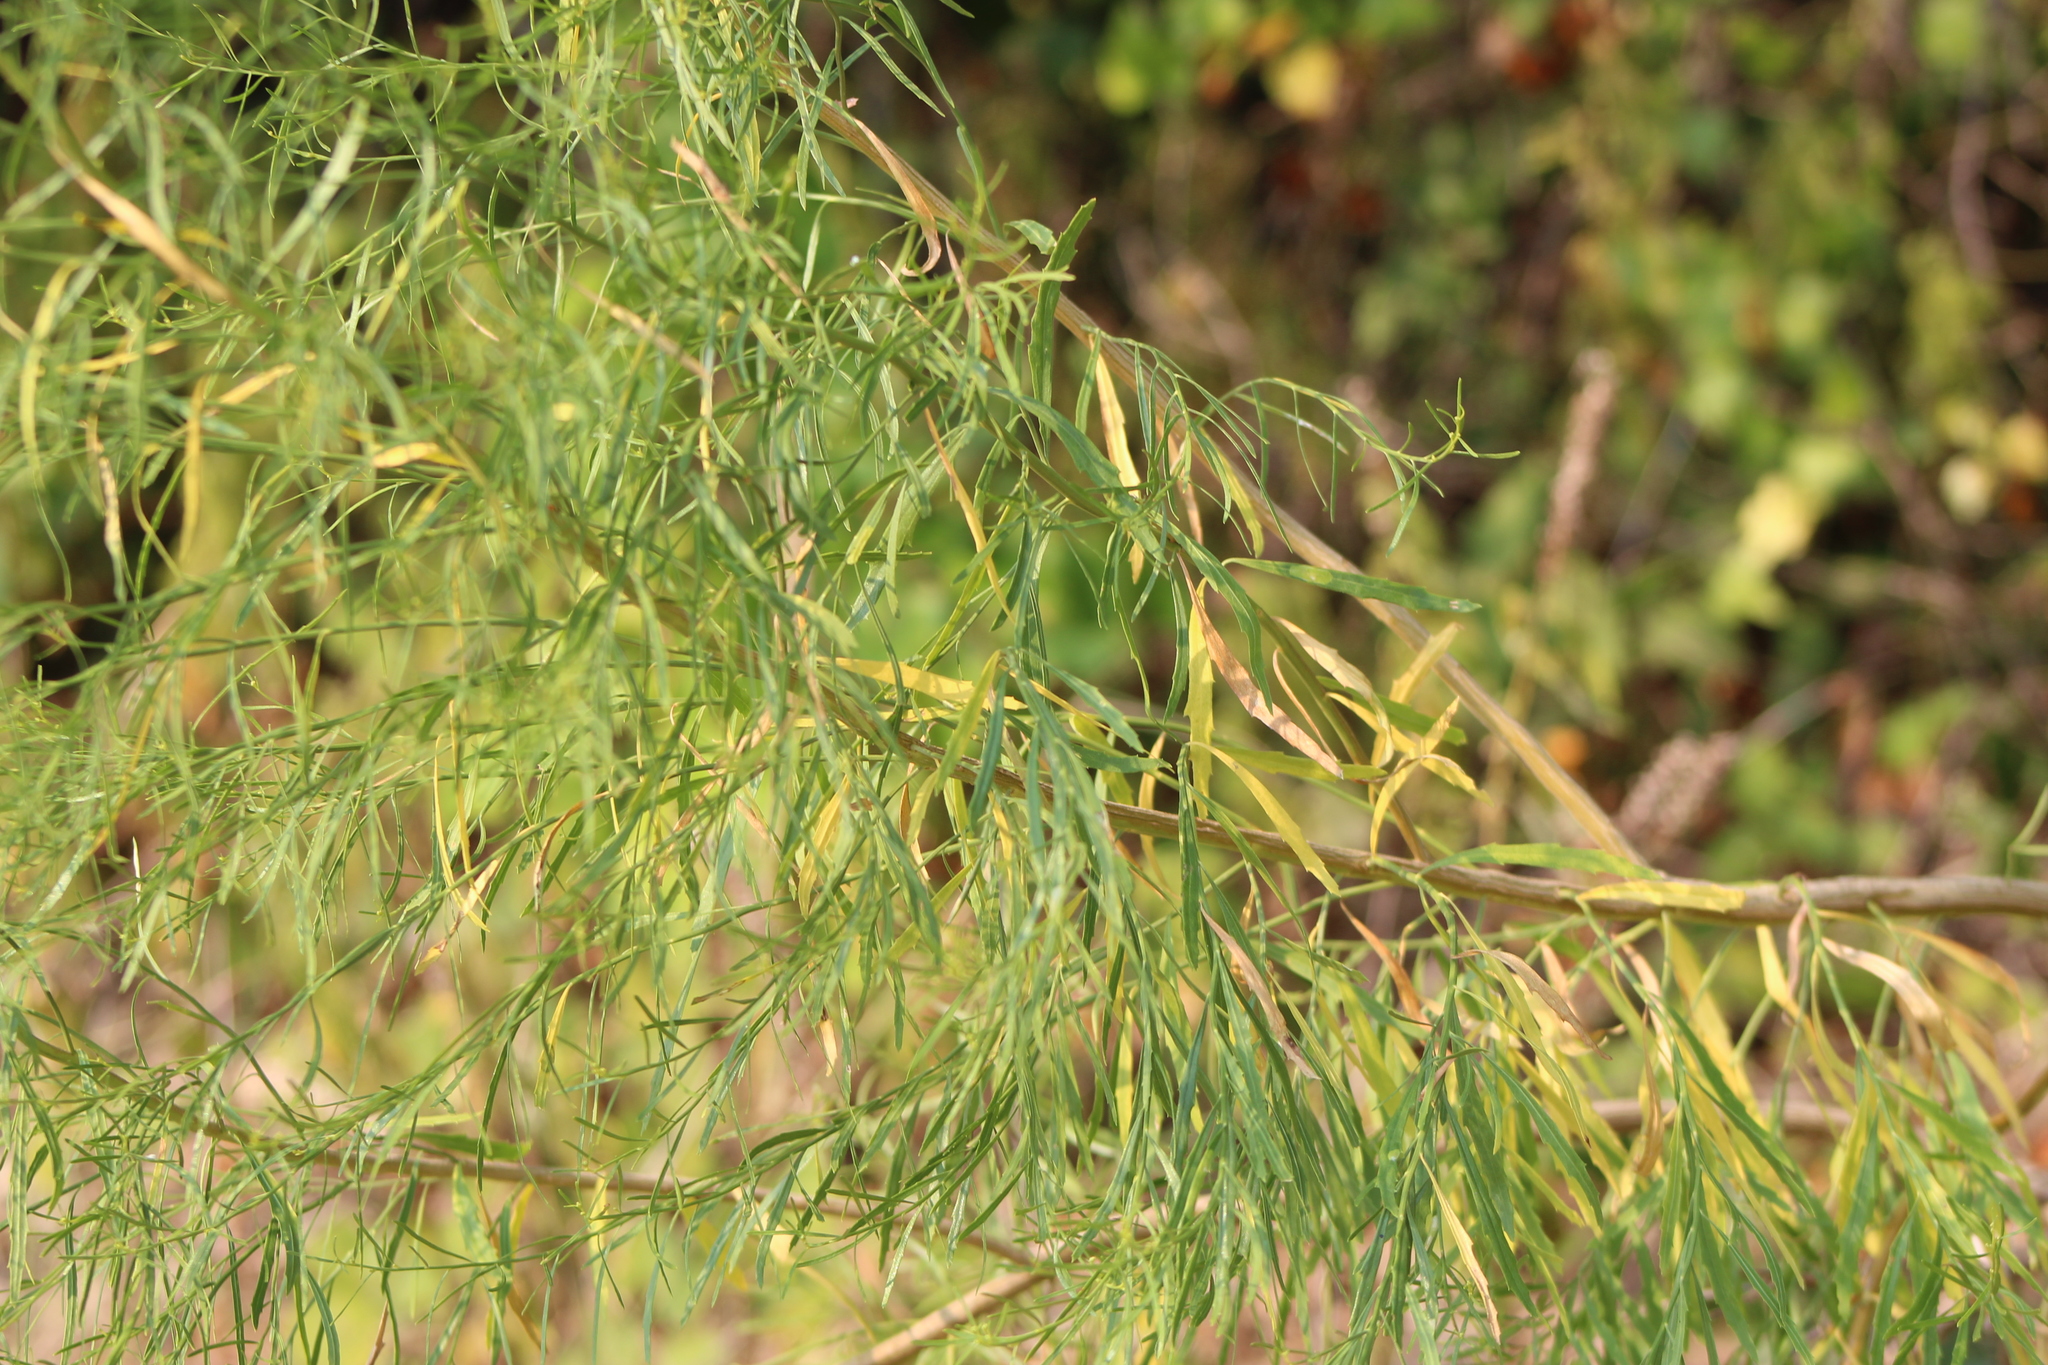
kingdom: Plantae
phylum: Tracheophyta
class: Magnoliopsida
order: Malpighiales
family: Salicaceae
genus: Salix
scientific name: Salix nigra
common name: Black willow
